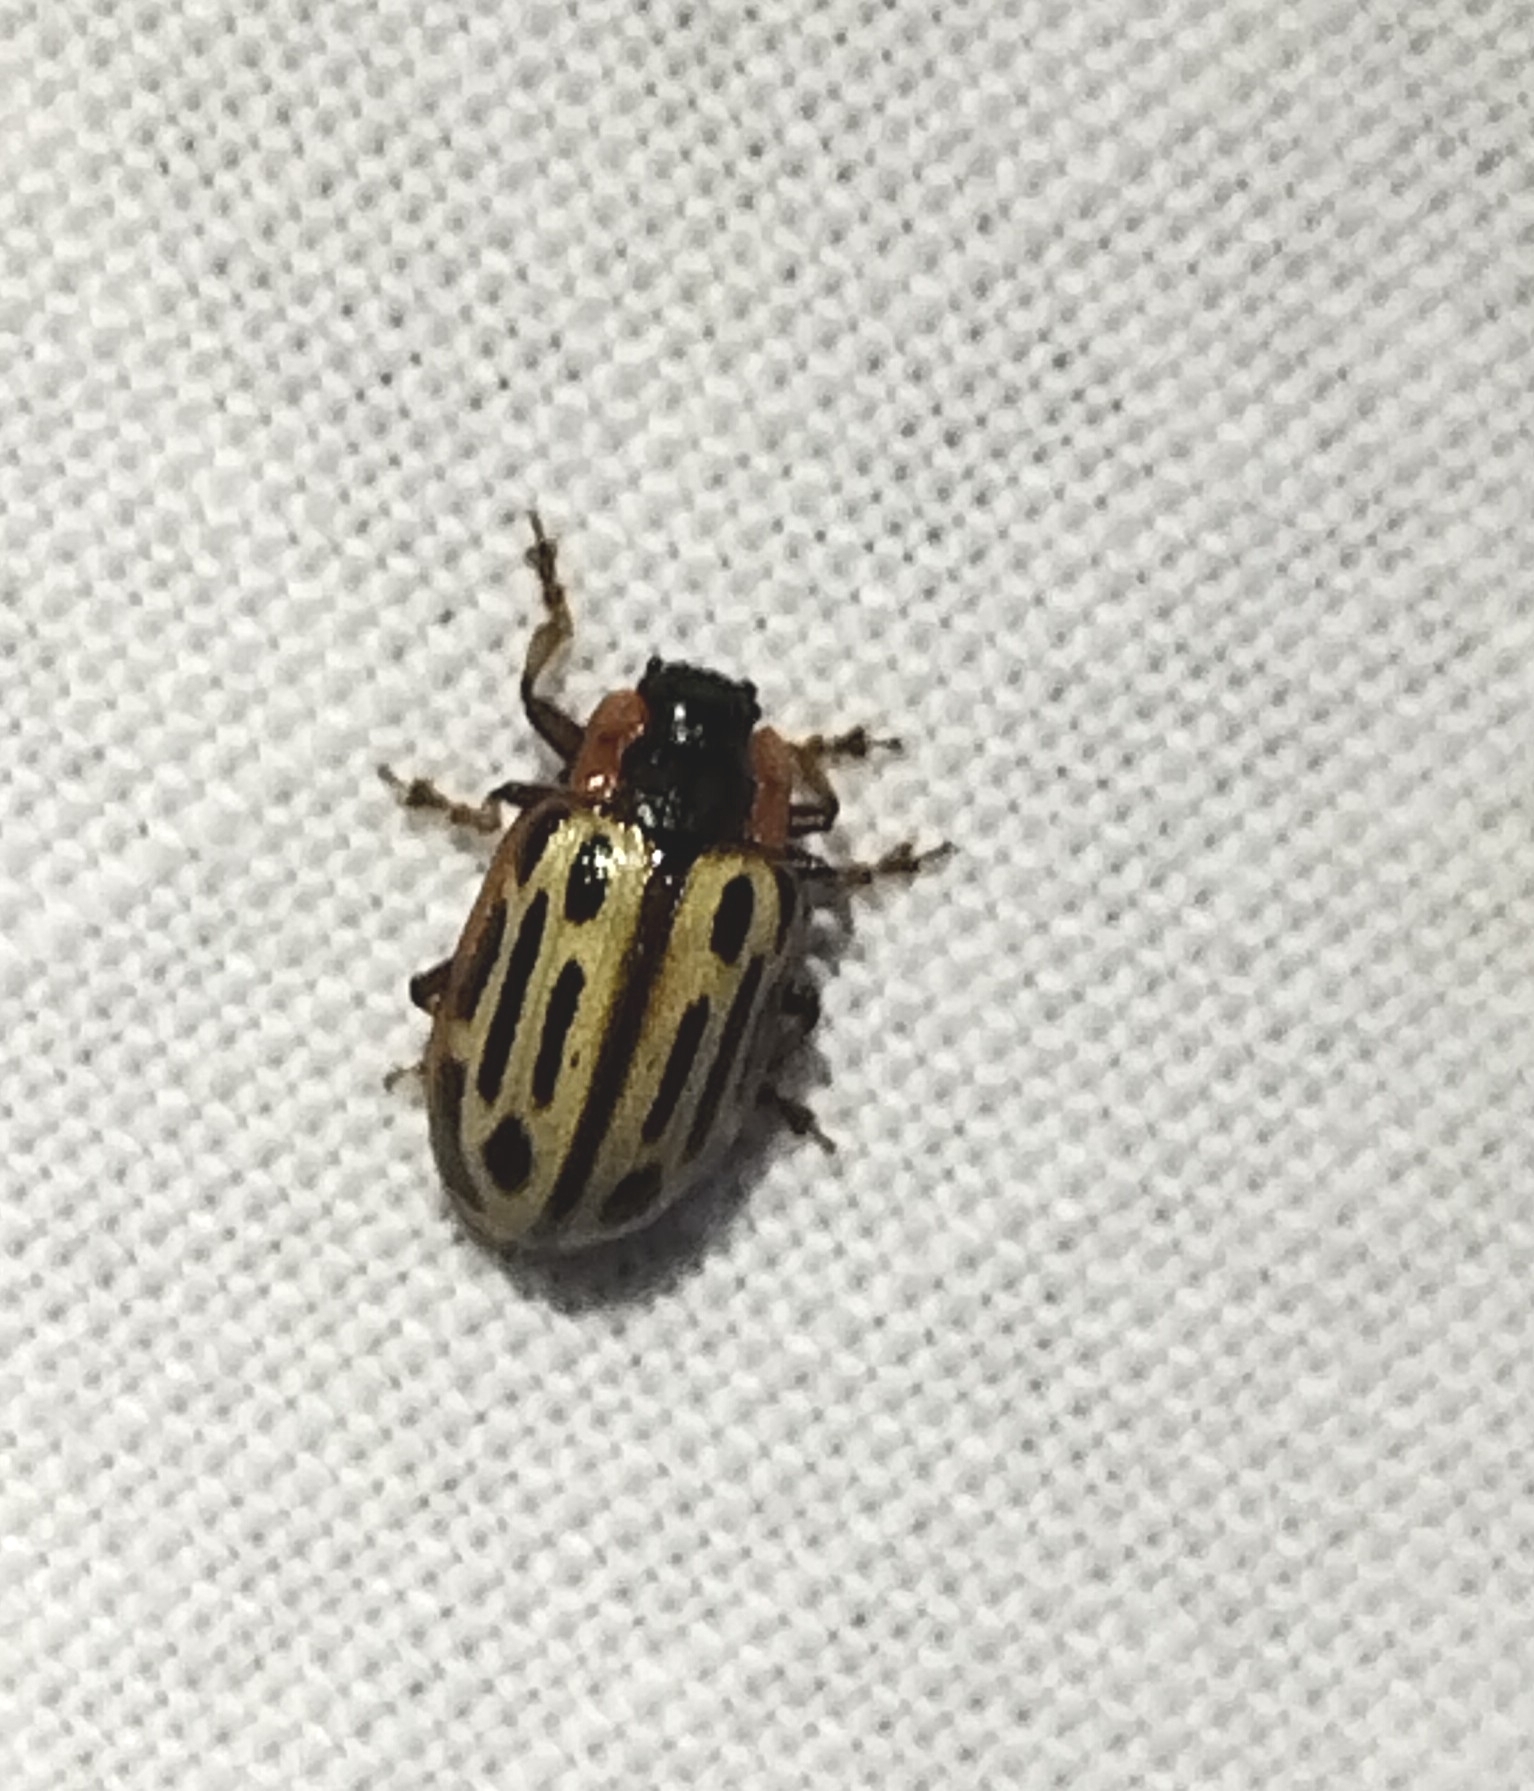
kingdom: Animalia
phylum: Arthropoda
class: Insecta
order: Coleoptera
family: Chrysomelidae
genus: Aethiopocassis
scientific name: Aethiopocassis scripta
